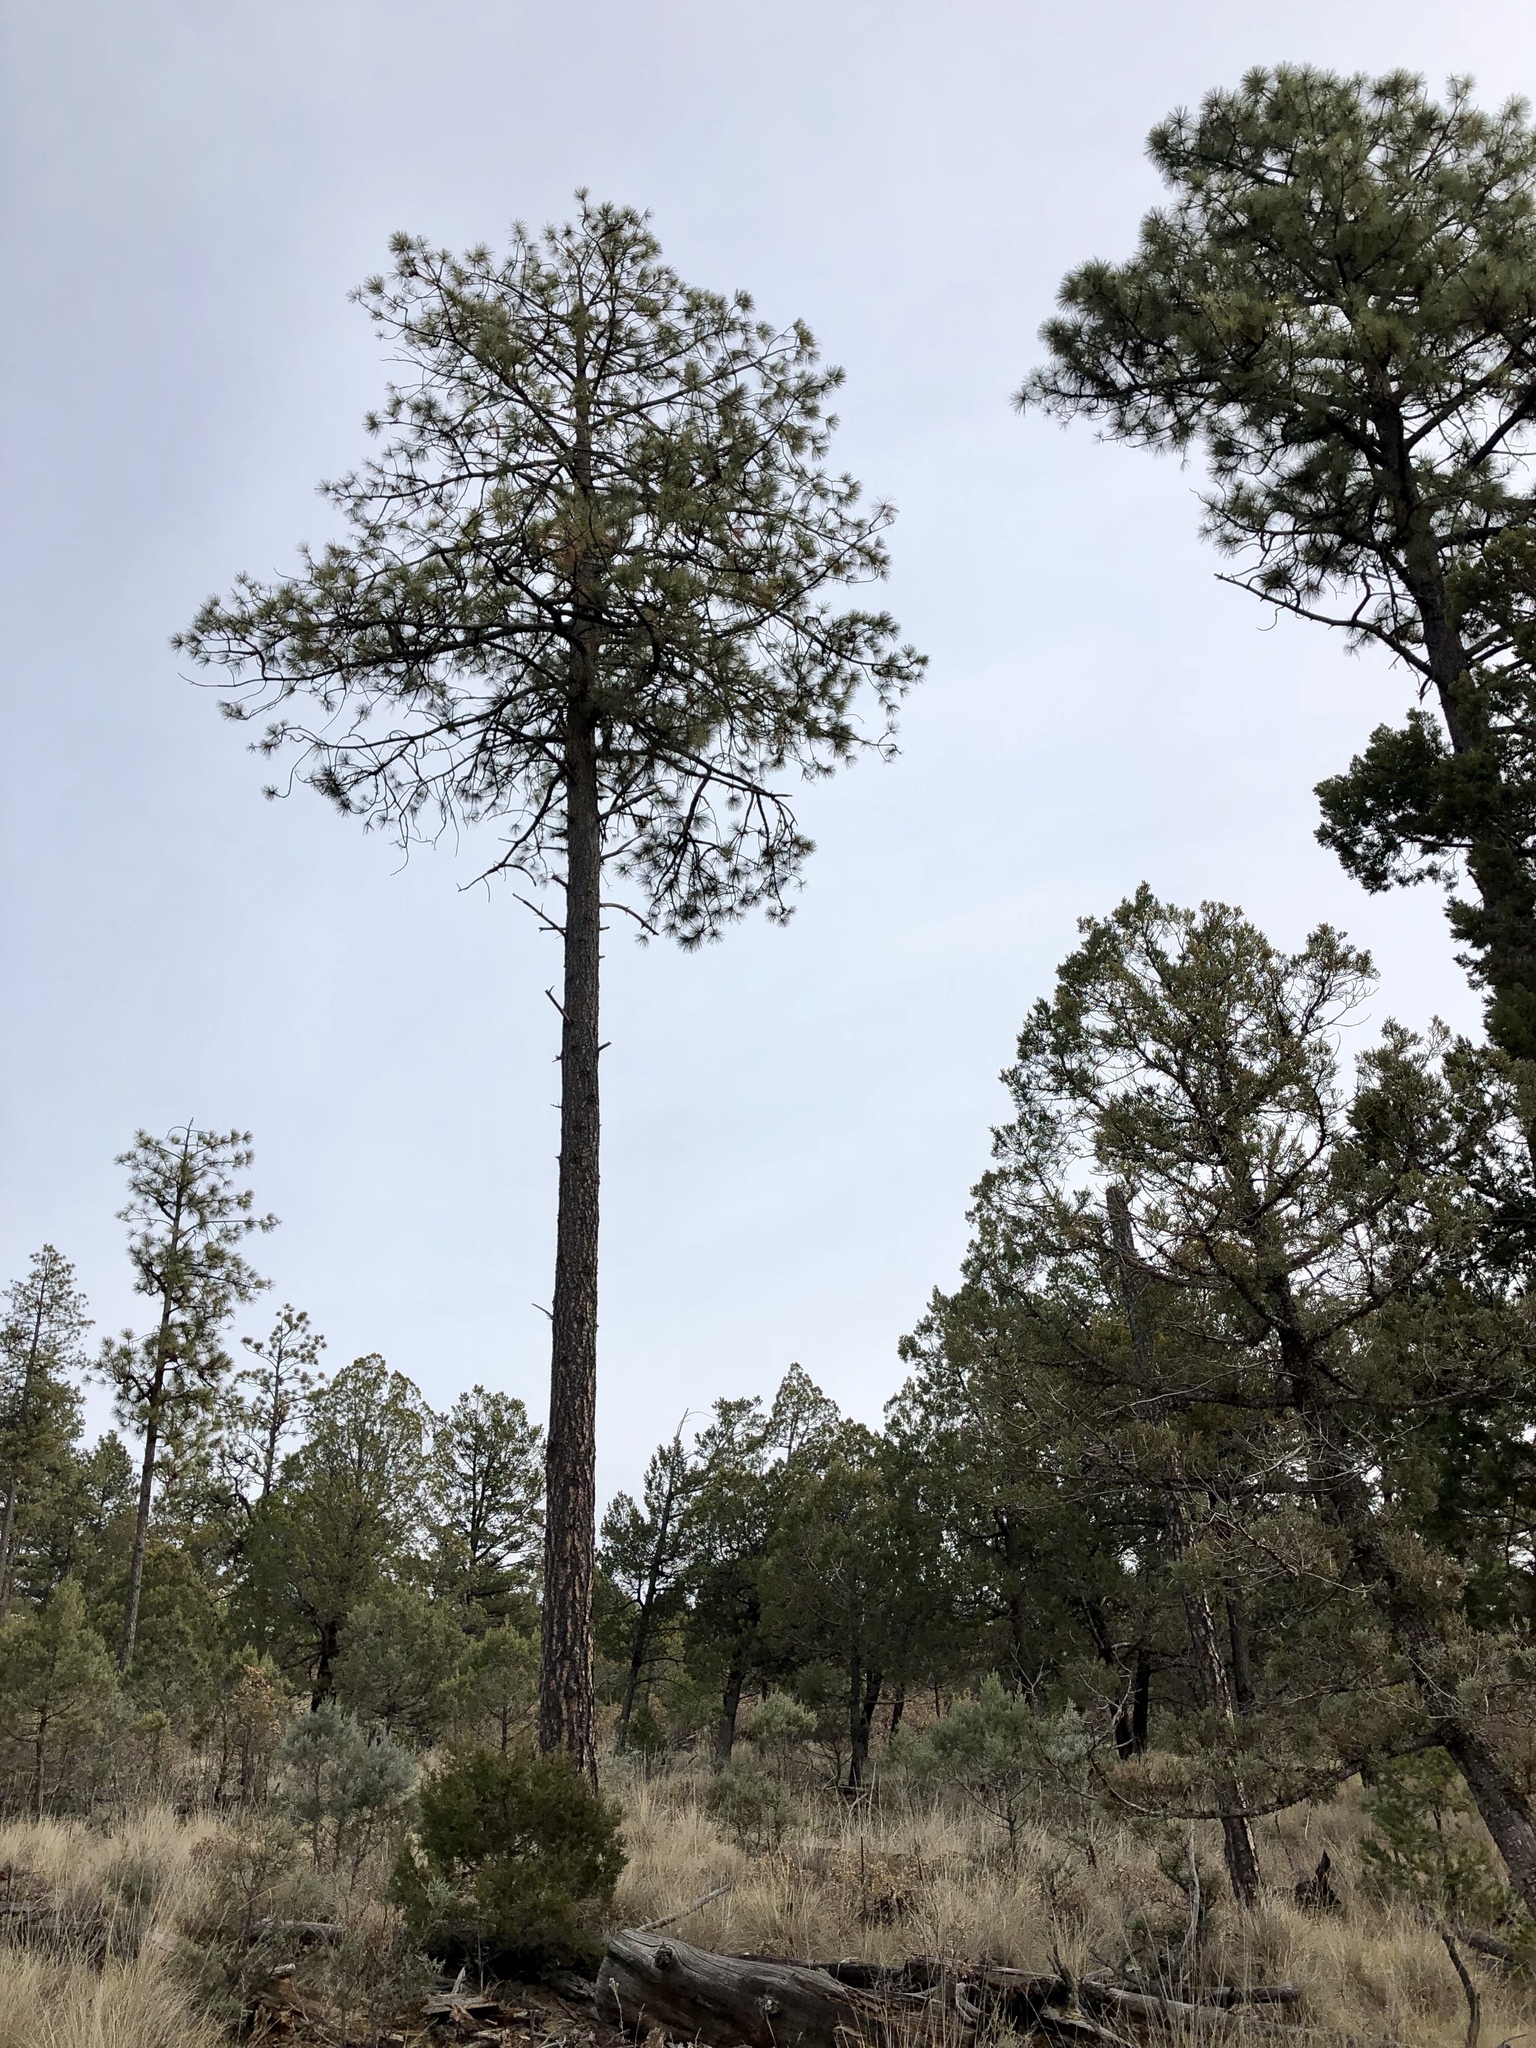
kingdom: Plantae
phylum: Tracheophyta
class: Pinopsida
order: Pinales
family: Pinaceae
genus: Pinus
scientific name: Pinus ponderosa
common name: Western yellow-pine
